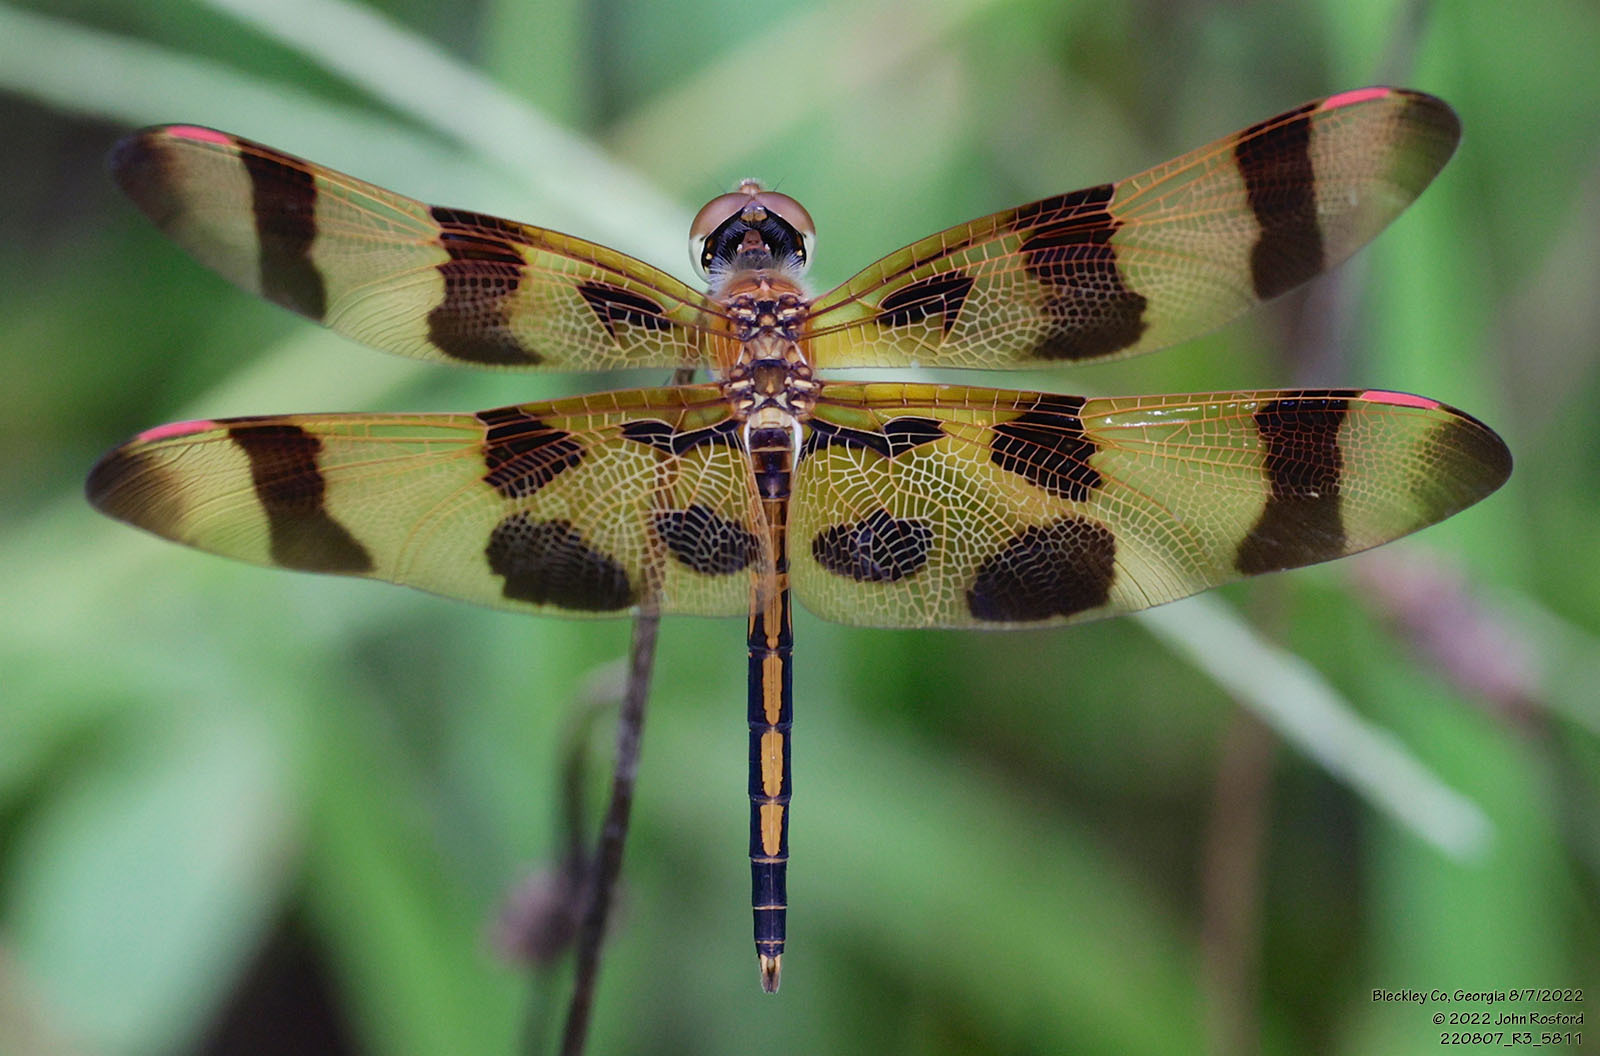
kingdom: Animalia
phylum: Arthropoda
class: Insecta
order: Odonata
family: Libellulidae
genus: Celithemis
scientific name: Celithemis eponina
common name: Halloween pennant
